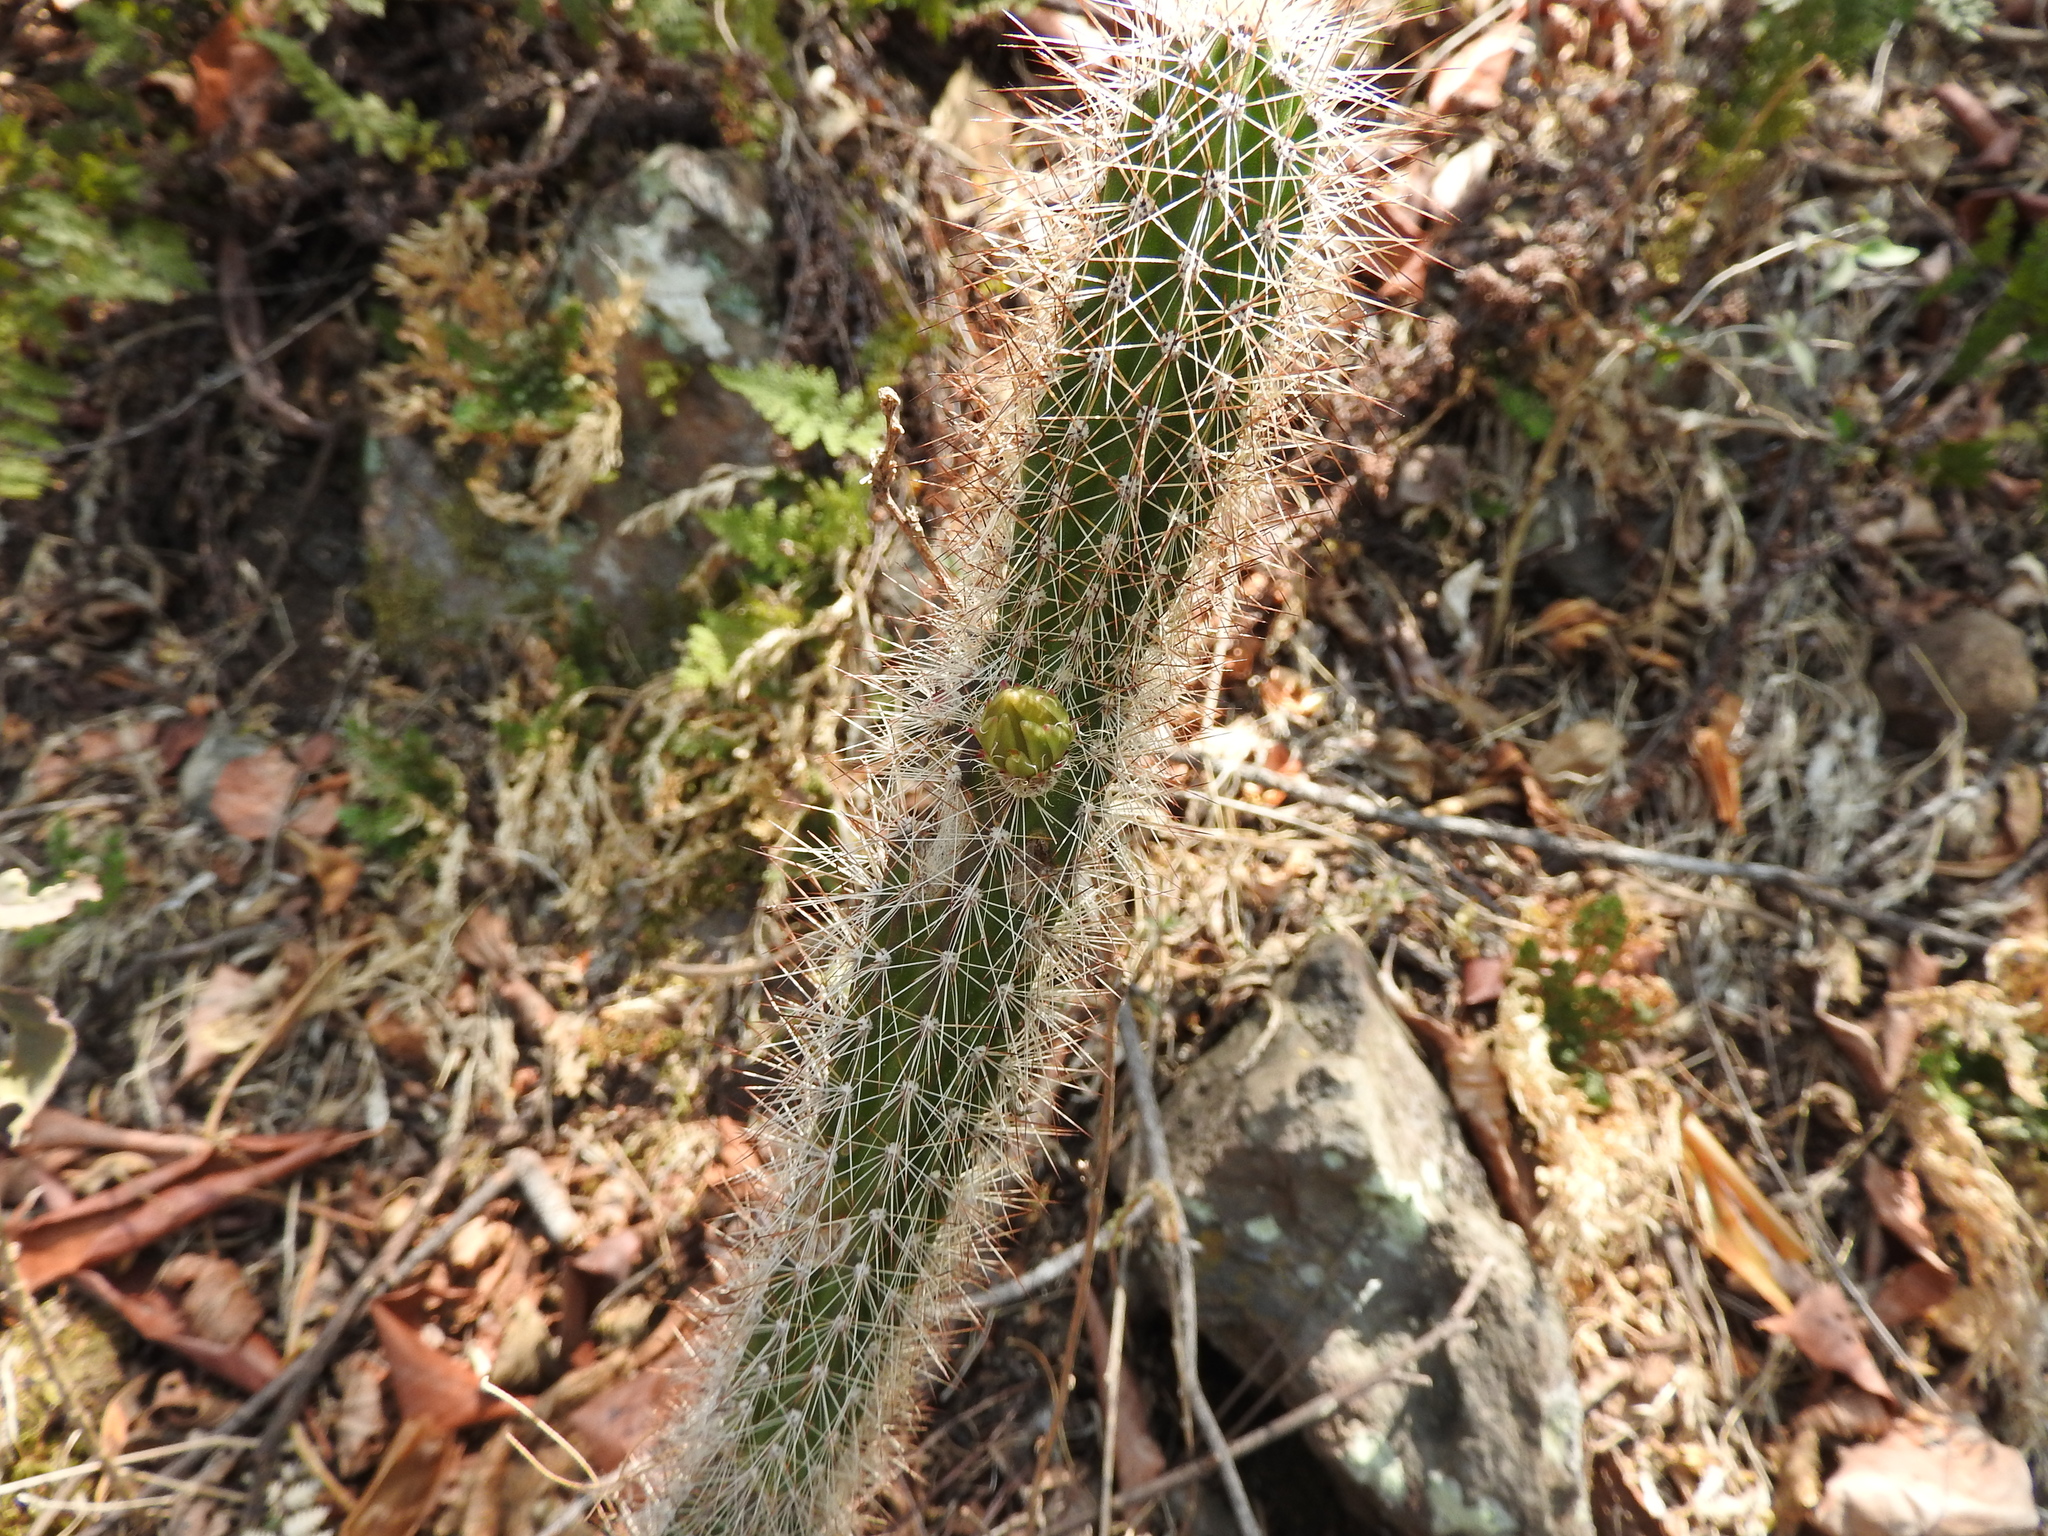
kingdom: Plantae
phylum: Tracheophyta
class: Magnoliopsida
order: Caryophyllales
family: Cactaceae
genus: Peniocereus
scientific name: Peniocereus serpentinus
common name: Serpent cactus
